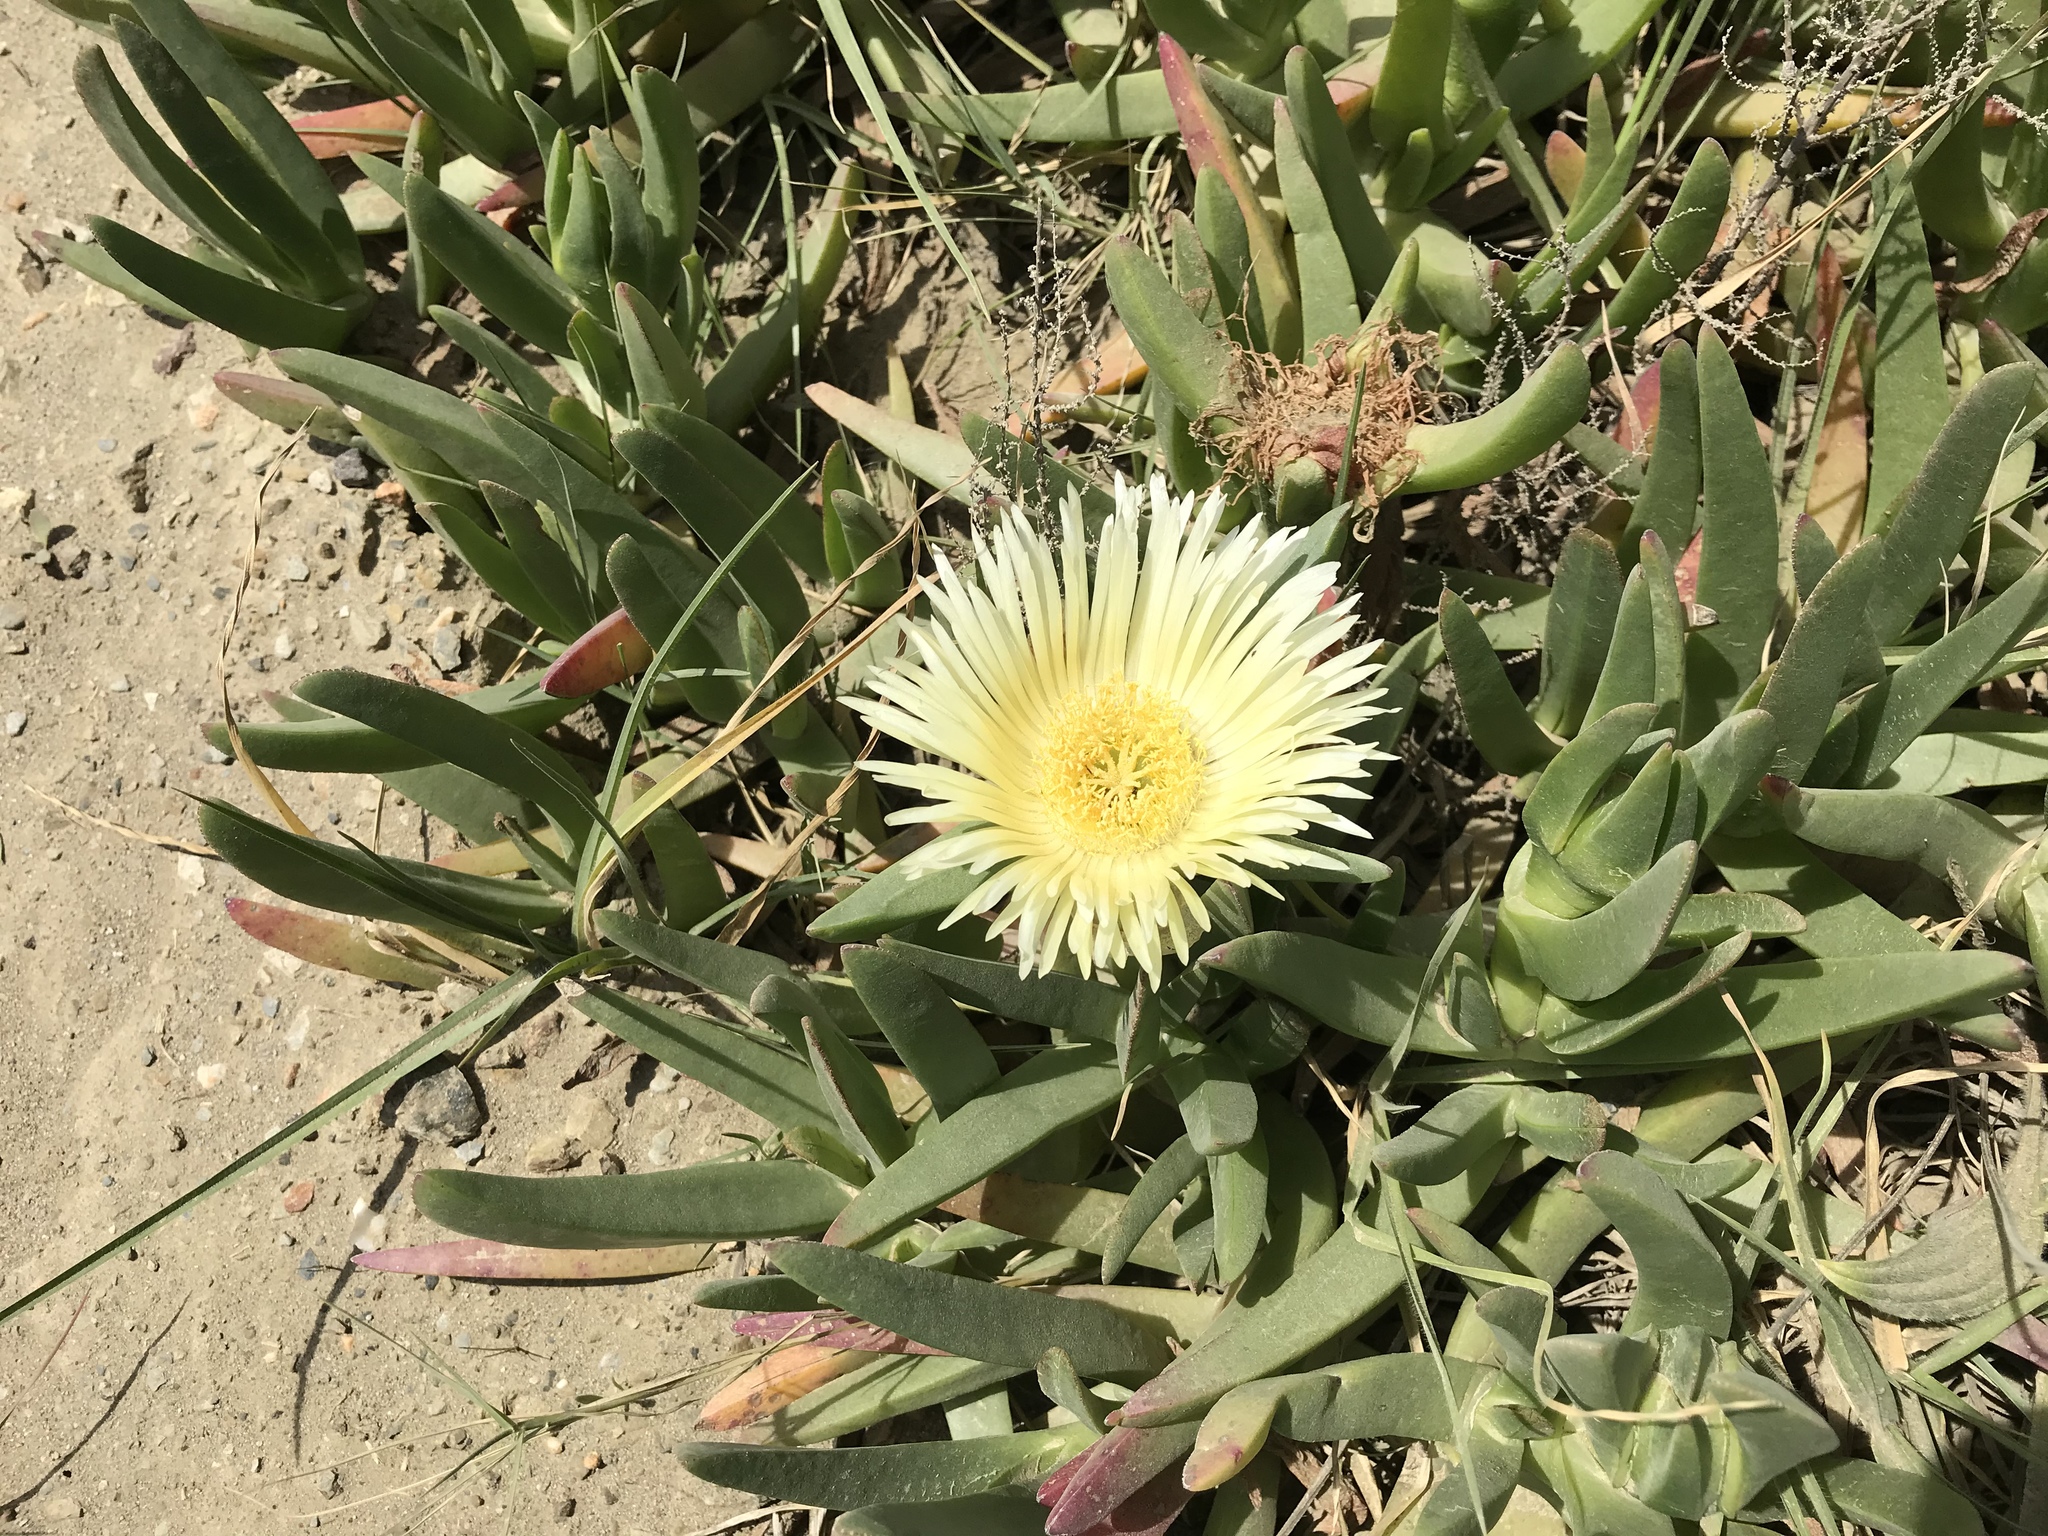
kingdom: Plantae
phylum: Tracheophyta
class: Magnoliopsida
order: Caryophyllales
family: Aizoaceae
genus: Carpobrotus
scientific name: Carpobrotus edulis
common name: Hottentot-fig
